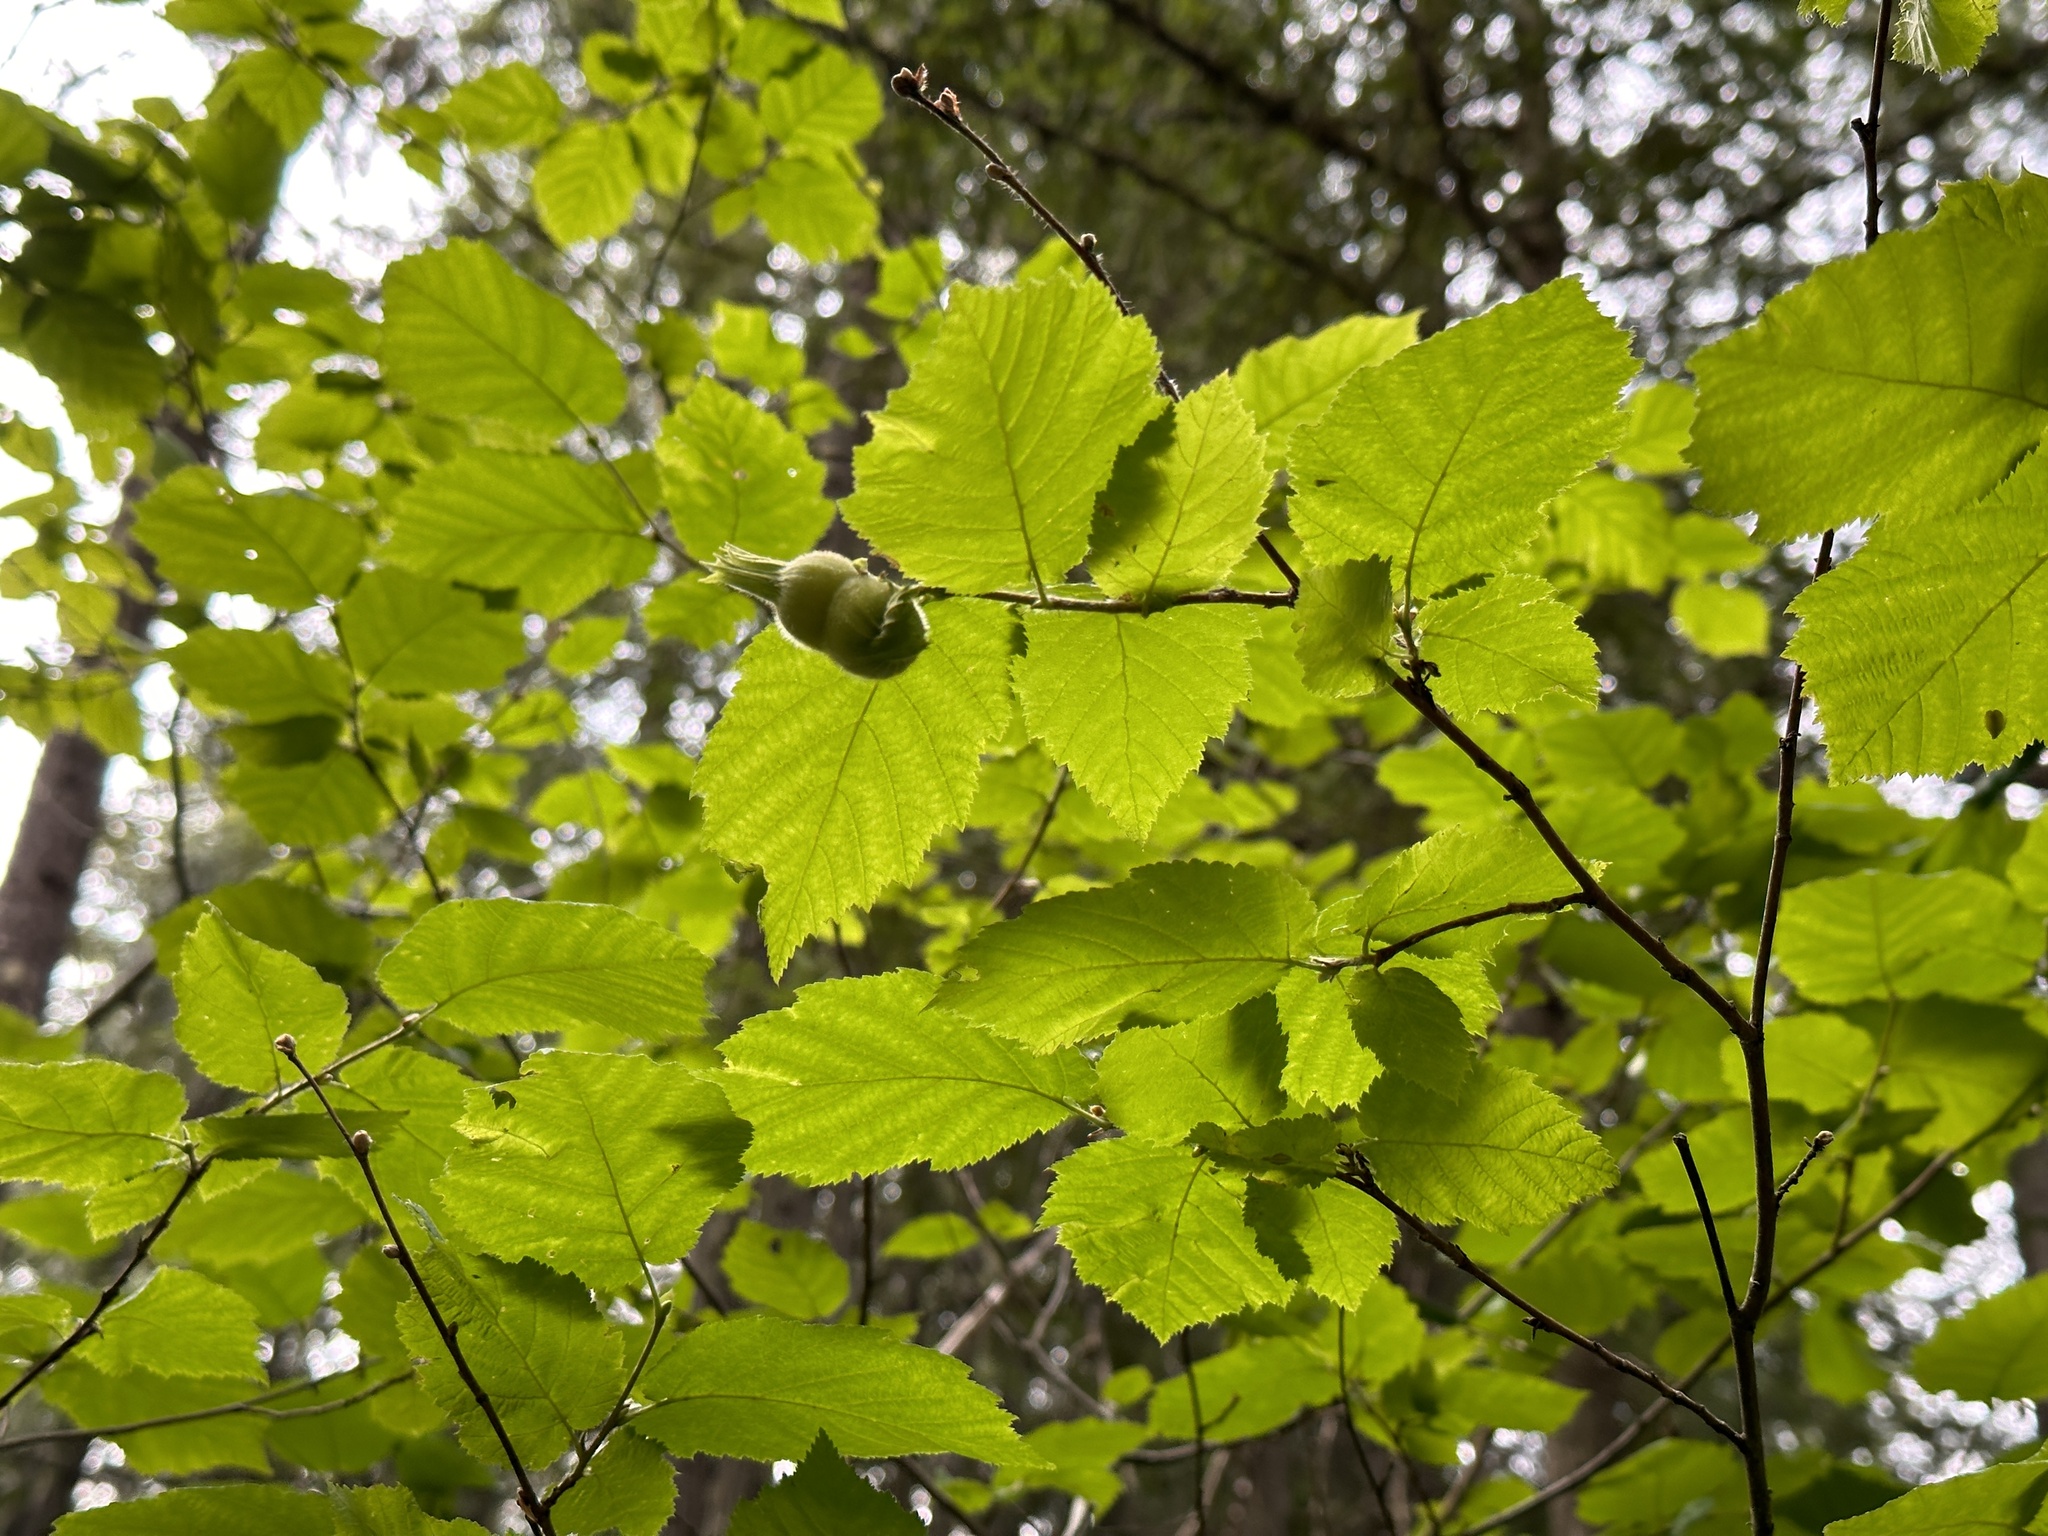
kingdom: Plantae
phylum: Tracheophyta
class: Magnoliopsida
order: Fagales
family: Betulaceae
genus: Corylus
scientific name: Corylus cornuta
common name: Beaked hazel
